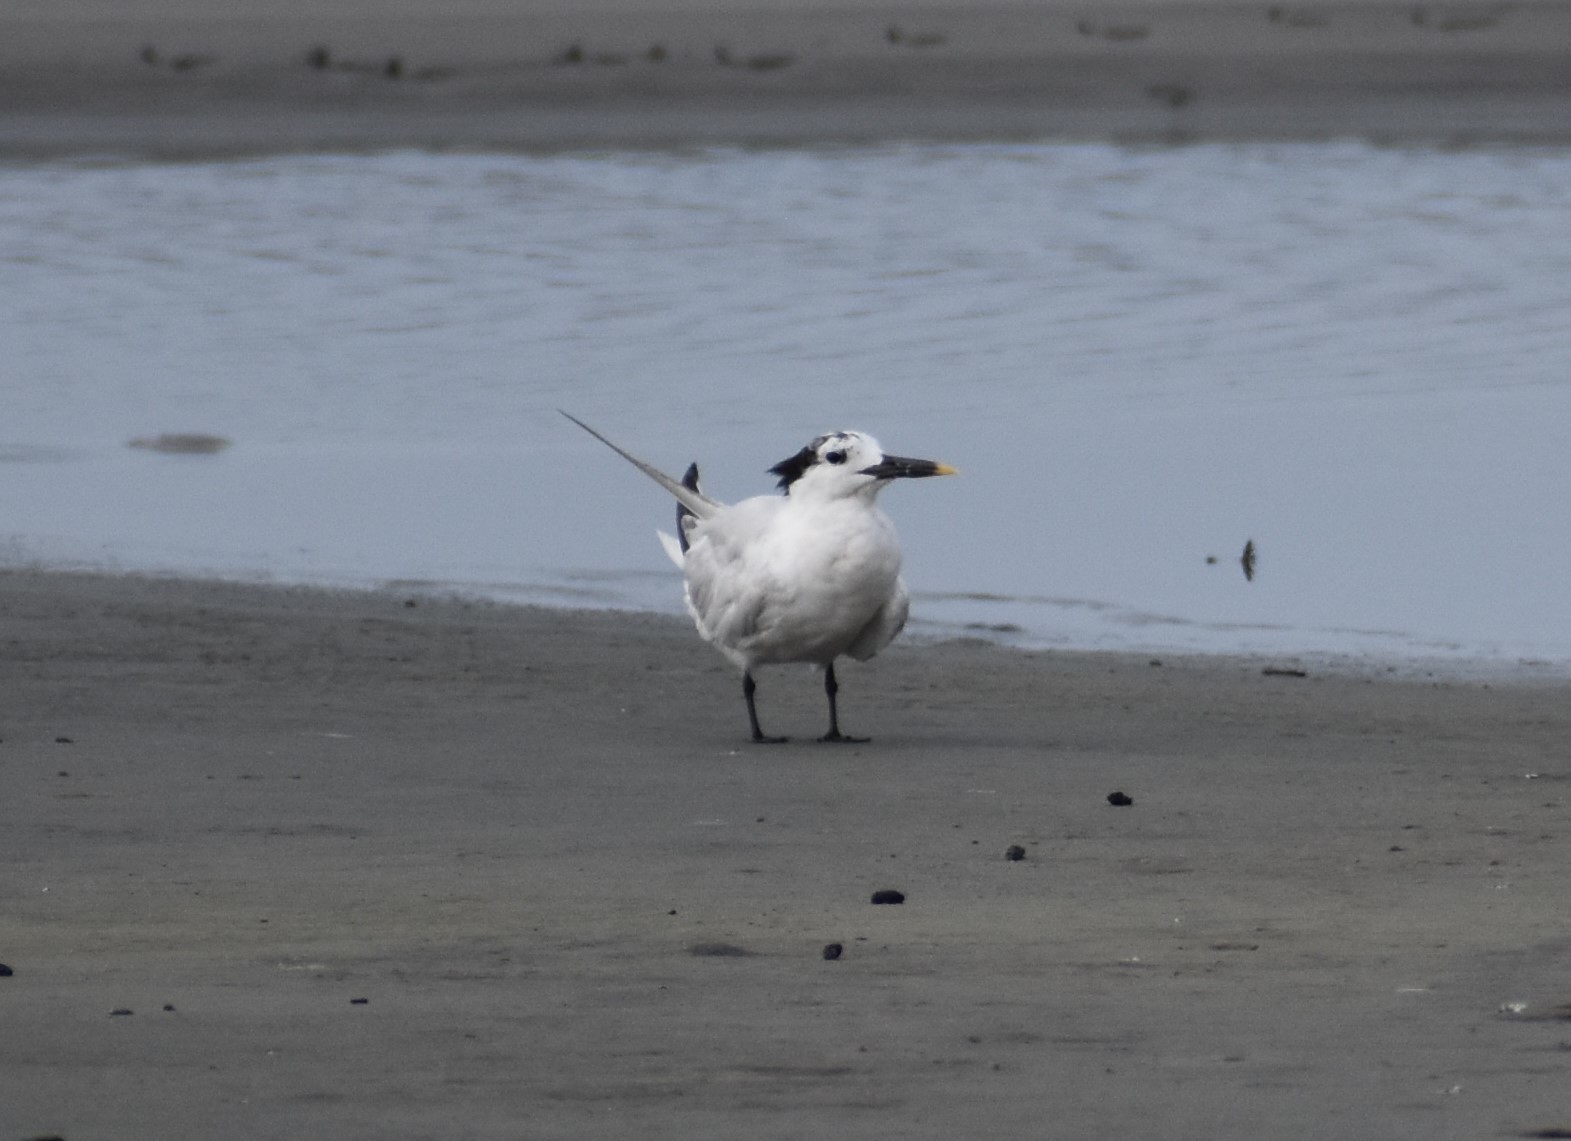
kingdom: Animalia
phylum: Chordata
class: Aves
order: Charadriiformes
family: Laridae
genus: Thalasseus
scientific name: Thalasseus sandvicensis
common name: Sandwich tern
